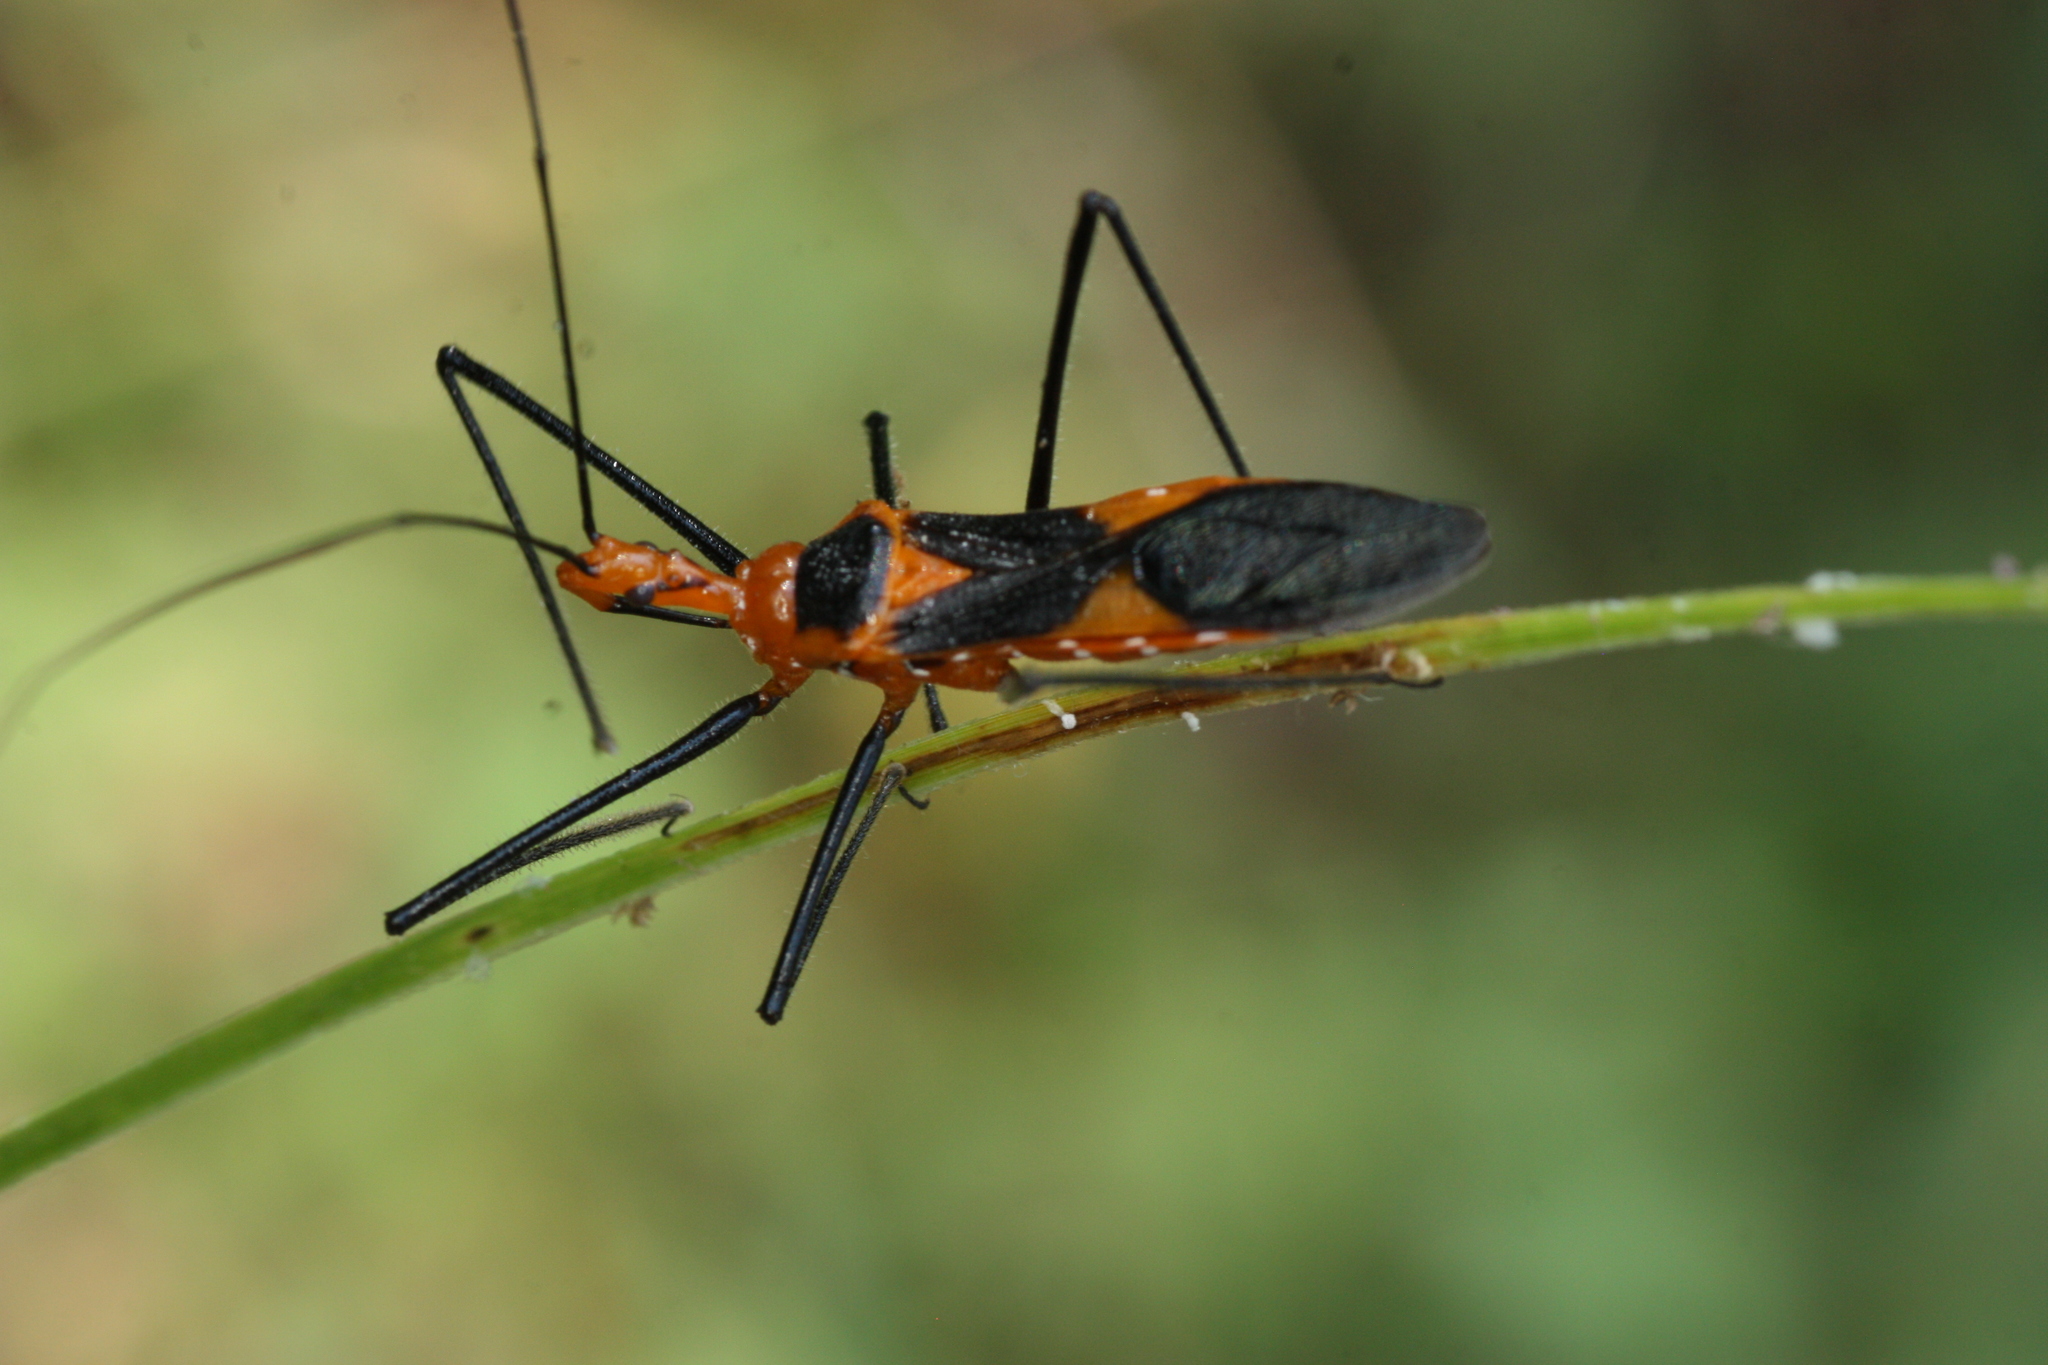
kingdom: Animalia
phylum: Arthropoda
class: Insecta
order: Hemiptera
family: Reduviidae
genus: Zelus
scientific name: Zelus longipes
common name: Milkweed assassin bug
